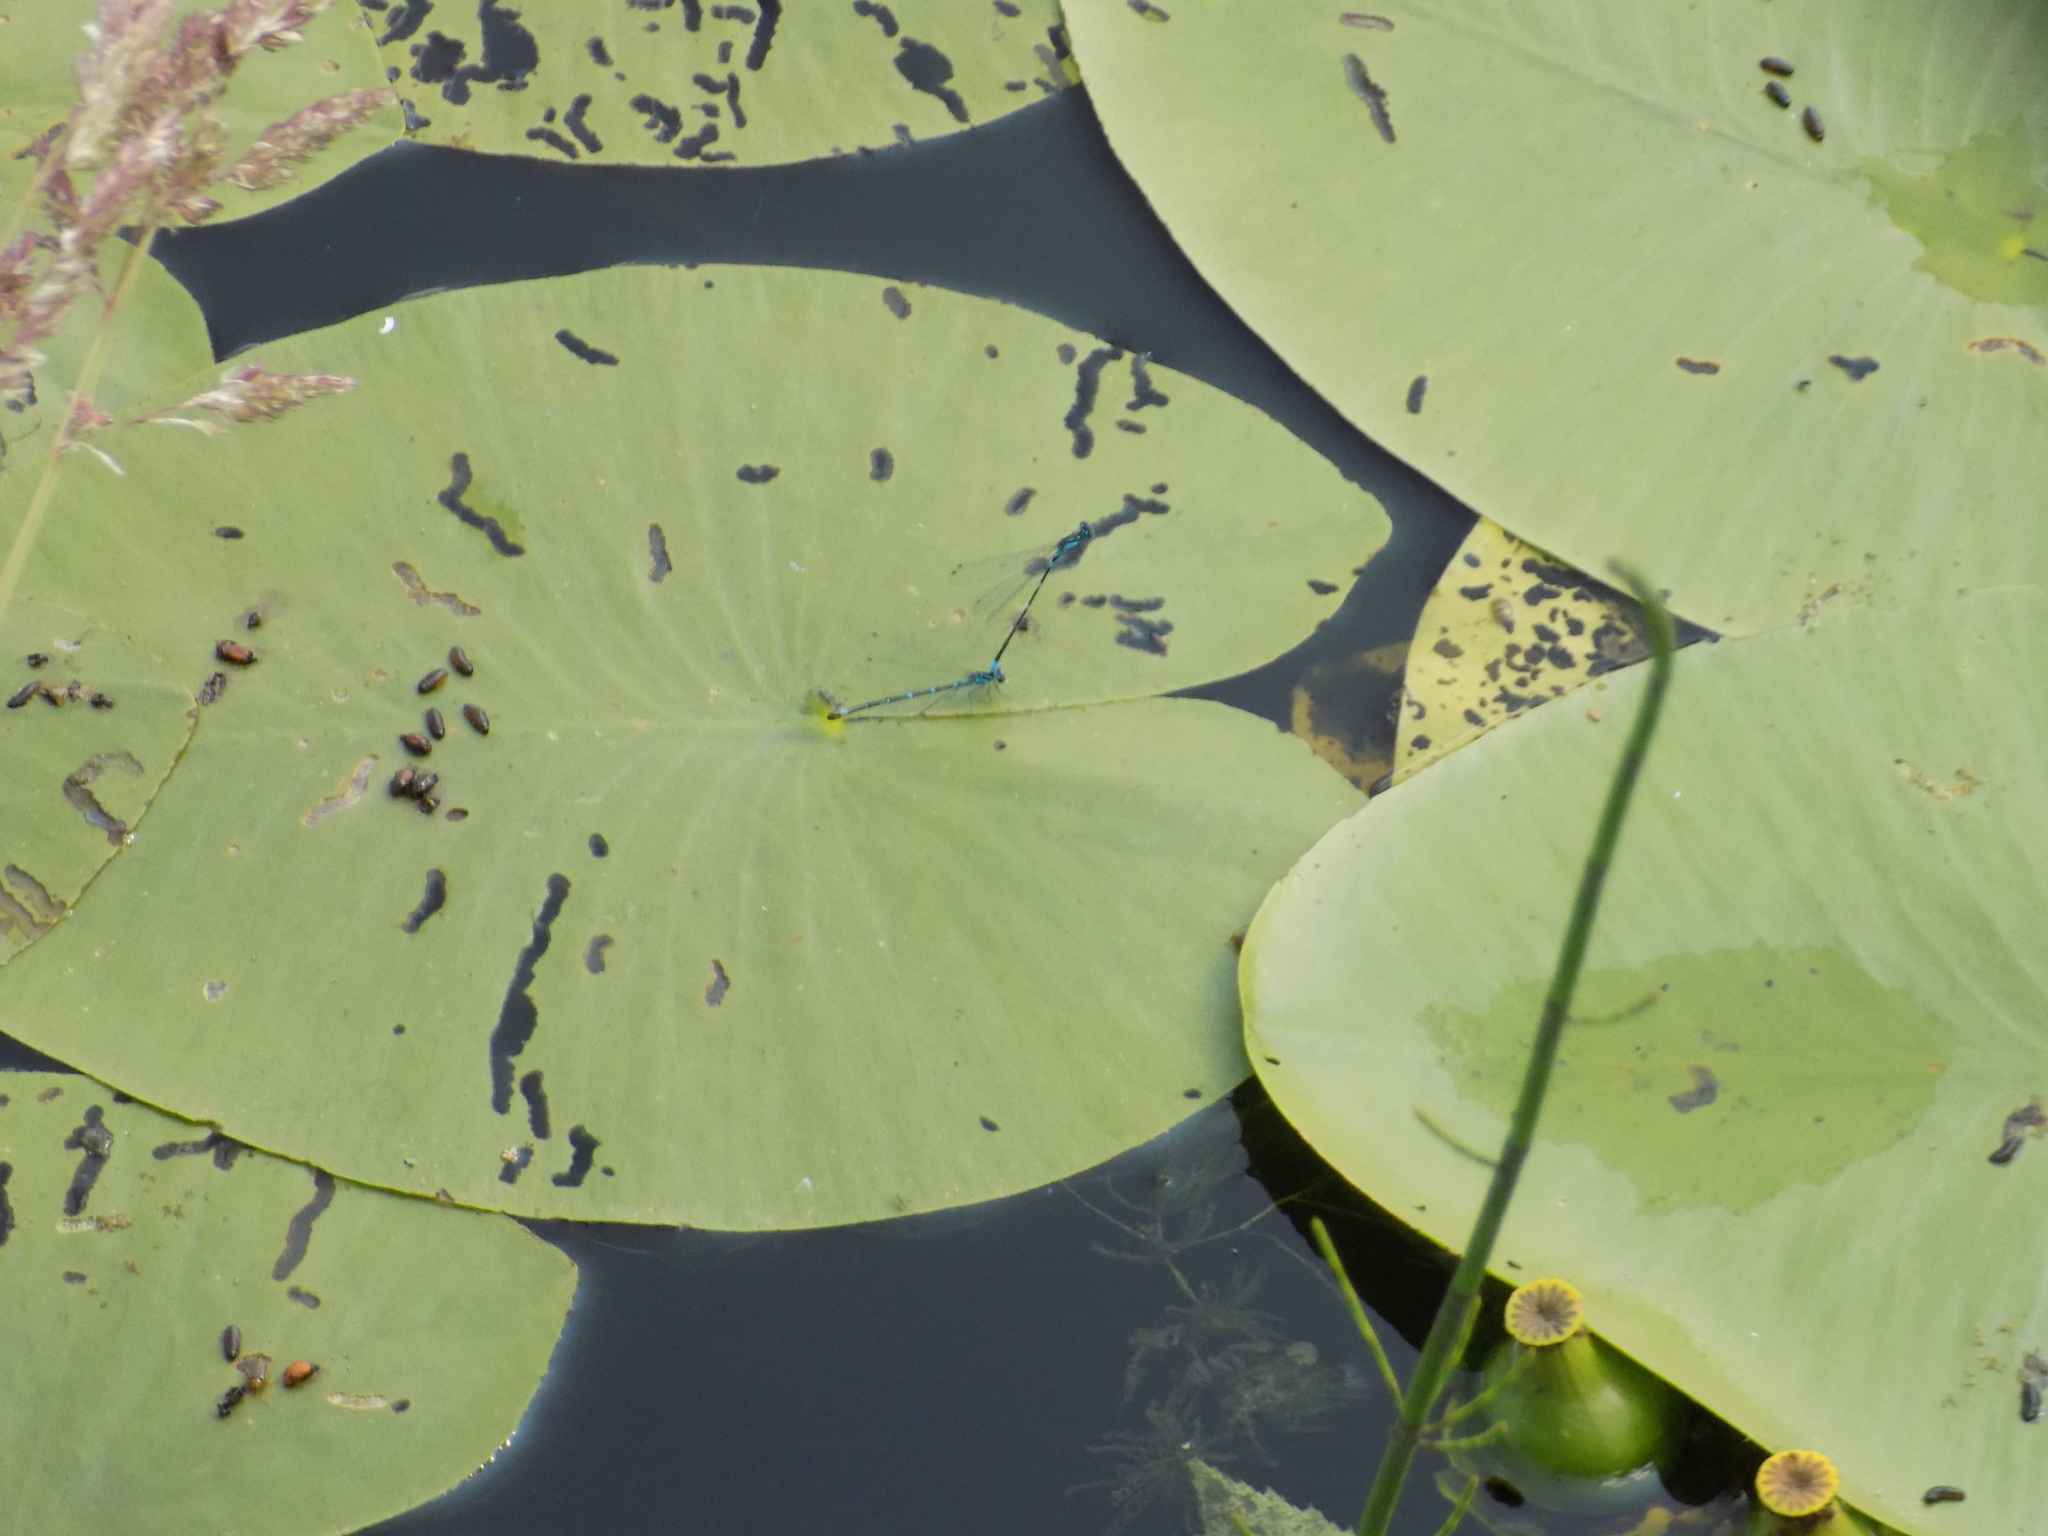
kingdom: Animalia
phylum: Arthropoda
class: Insecta
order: Odonata
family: Coenagrionidae
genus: Coenagrion
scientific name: Coenagrion pulchellum
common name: Variable bluet
